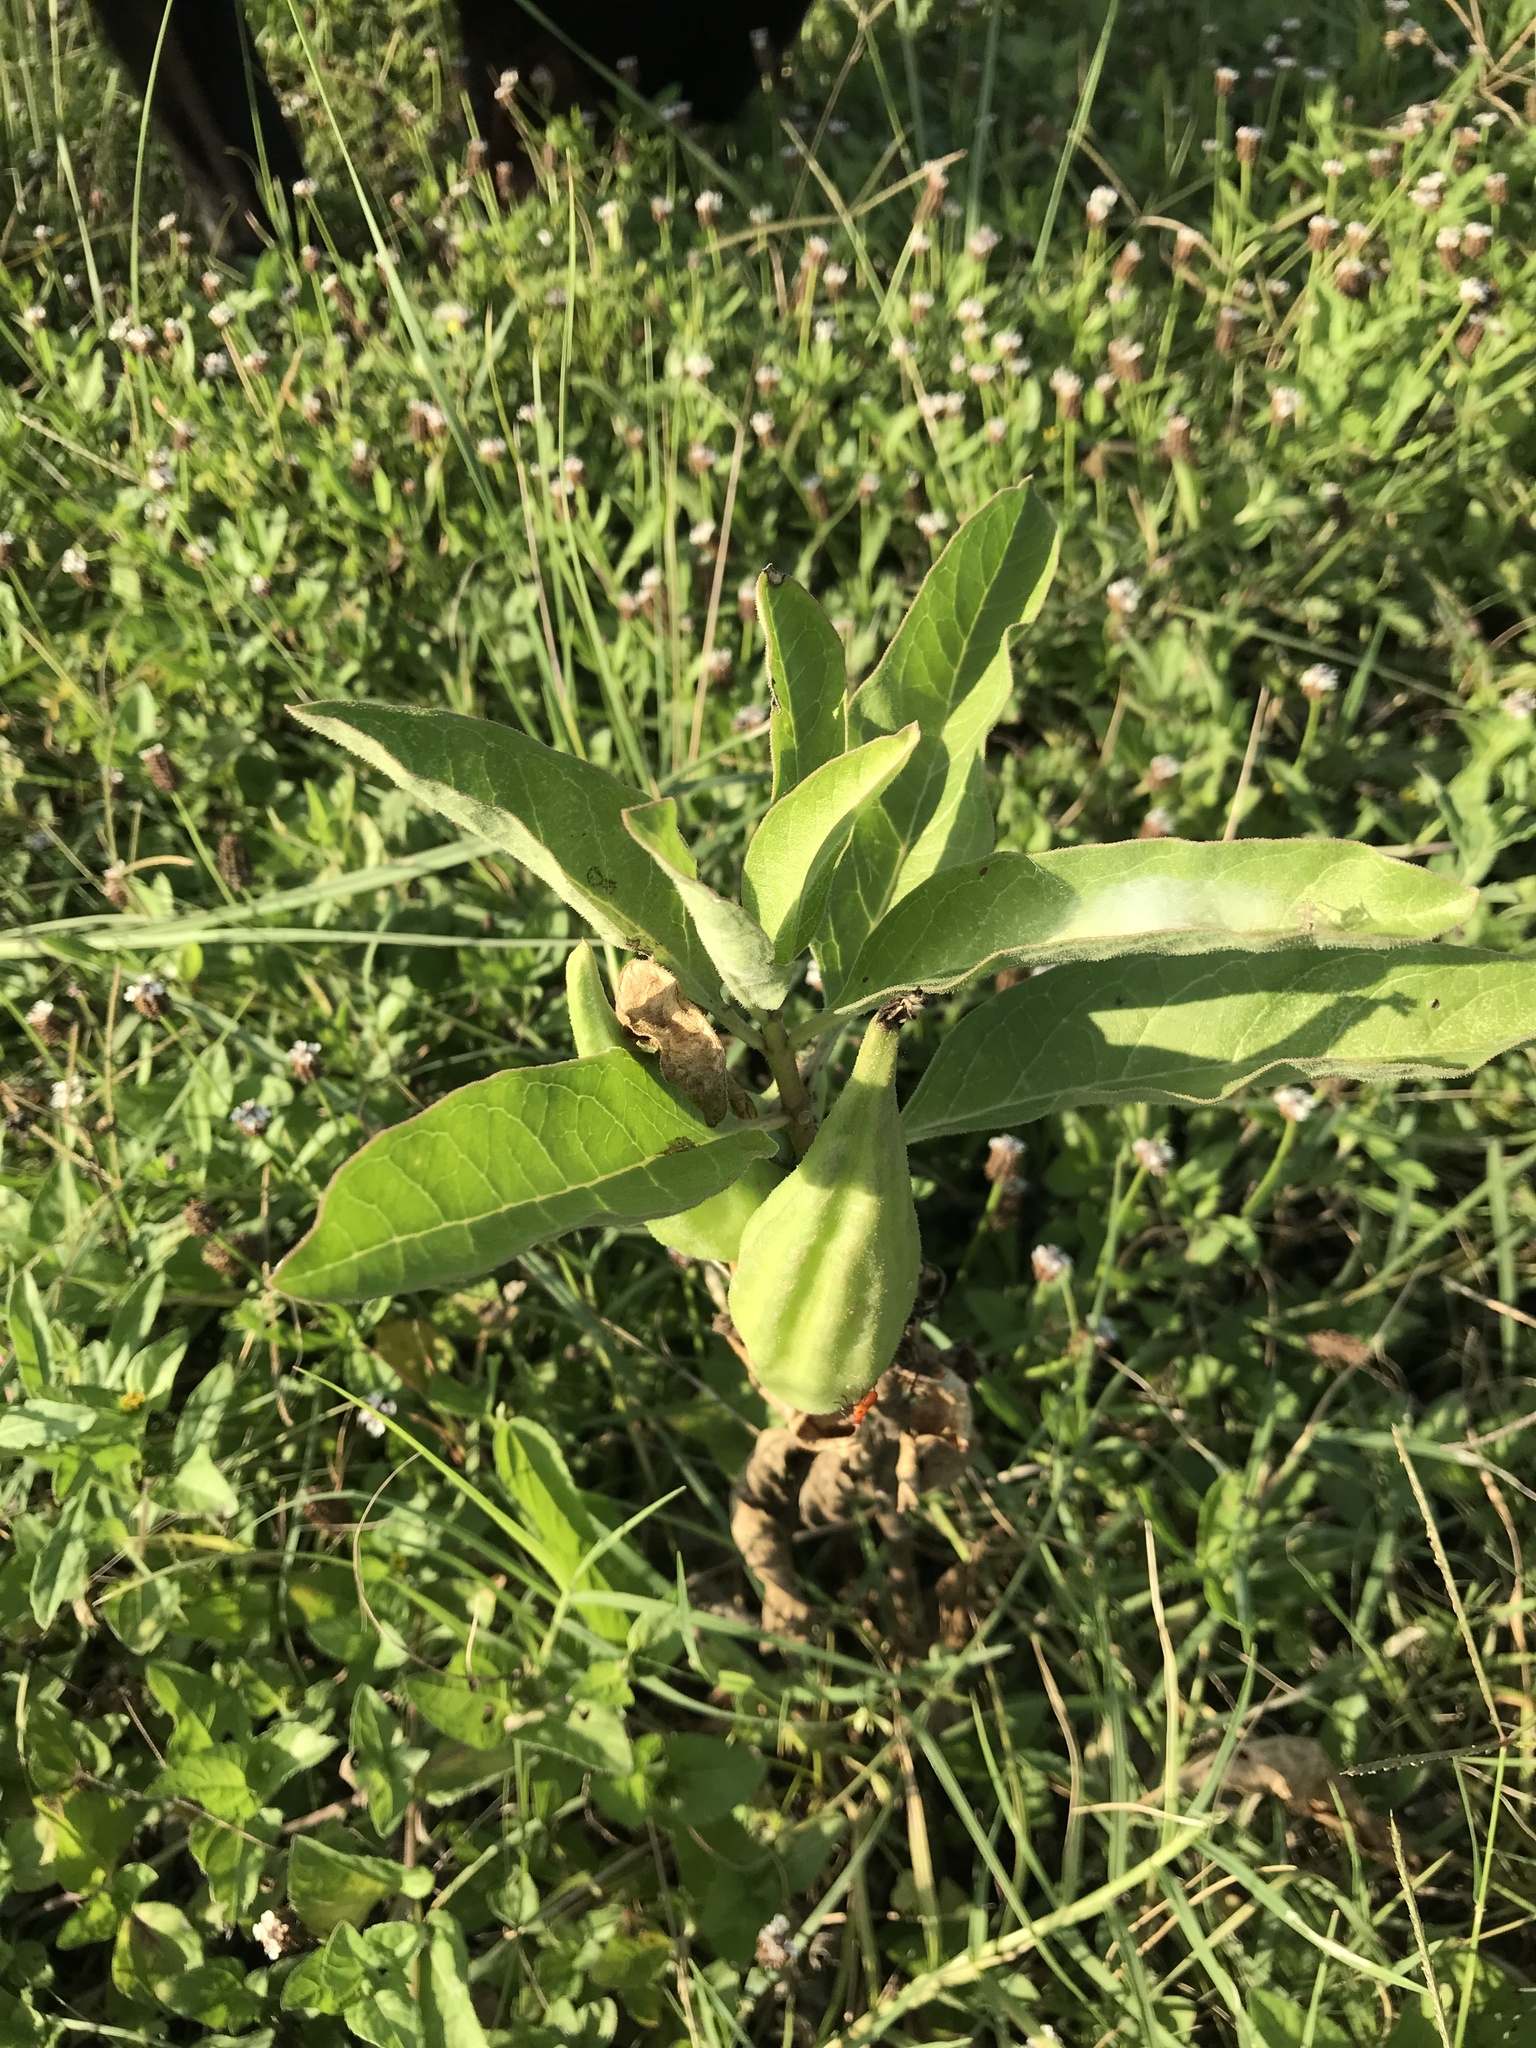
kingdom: Plantae
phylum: Tracheophyta
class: Magnoliopsida
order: Gentianales
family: Apocynaceae
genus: Asclepias
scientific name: Asclepias oenotheroides
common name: Zizotes milkweed
